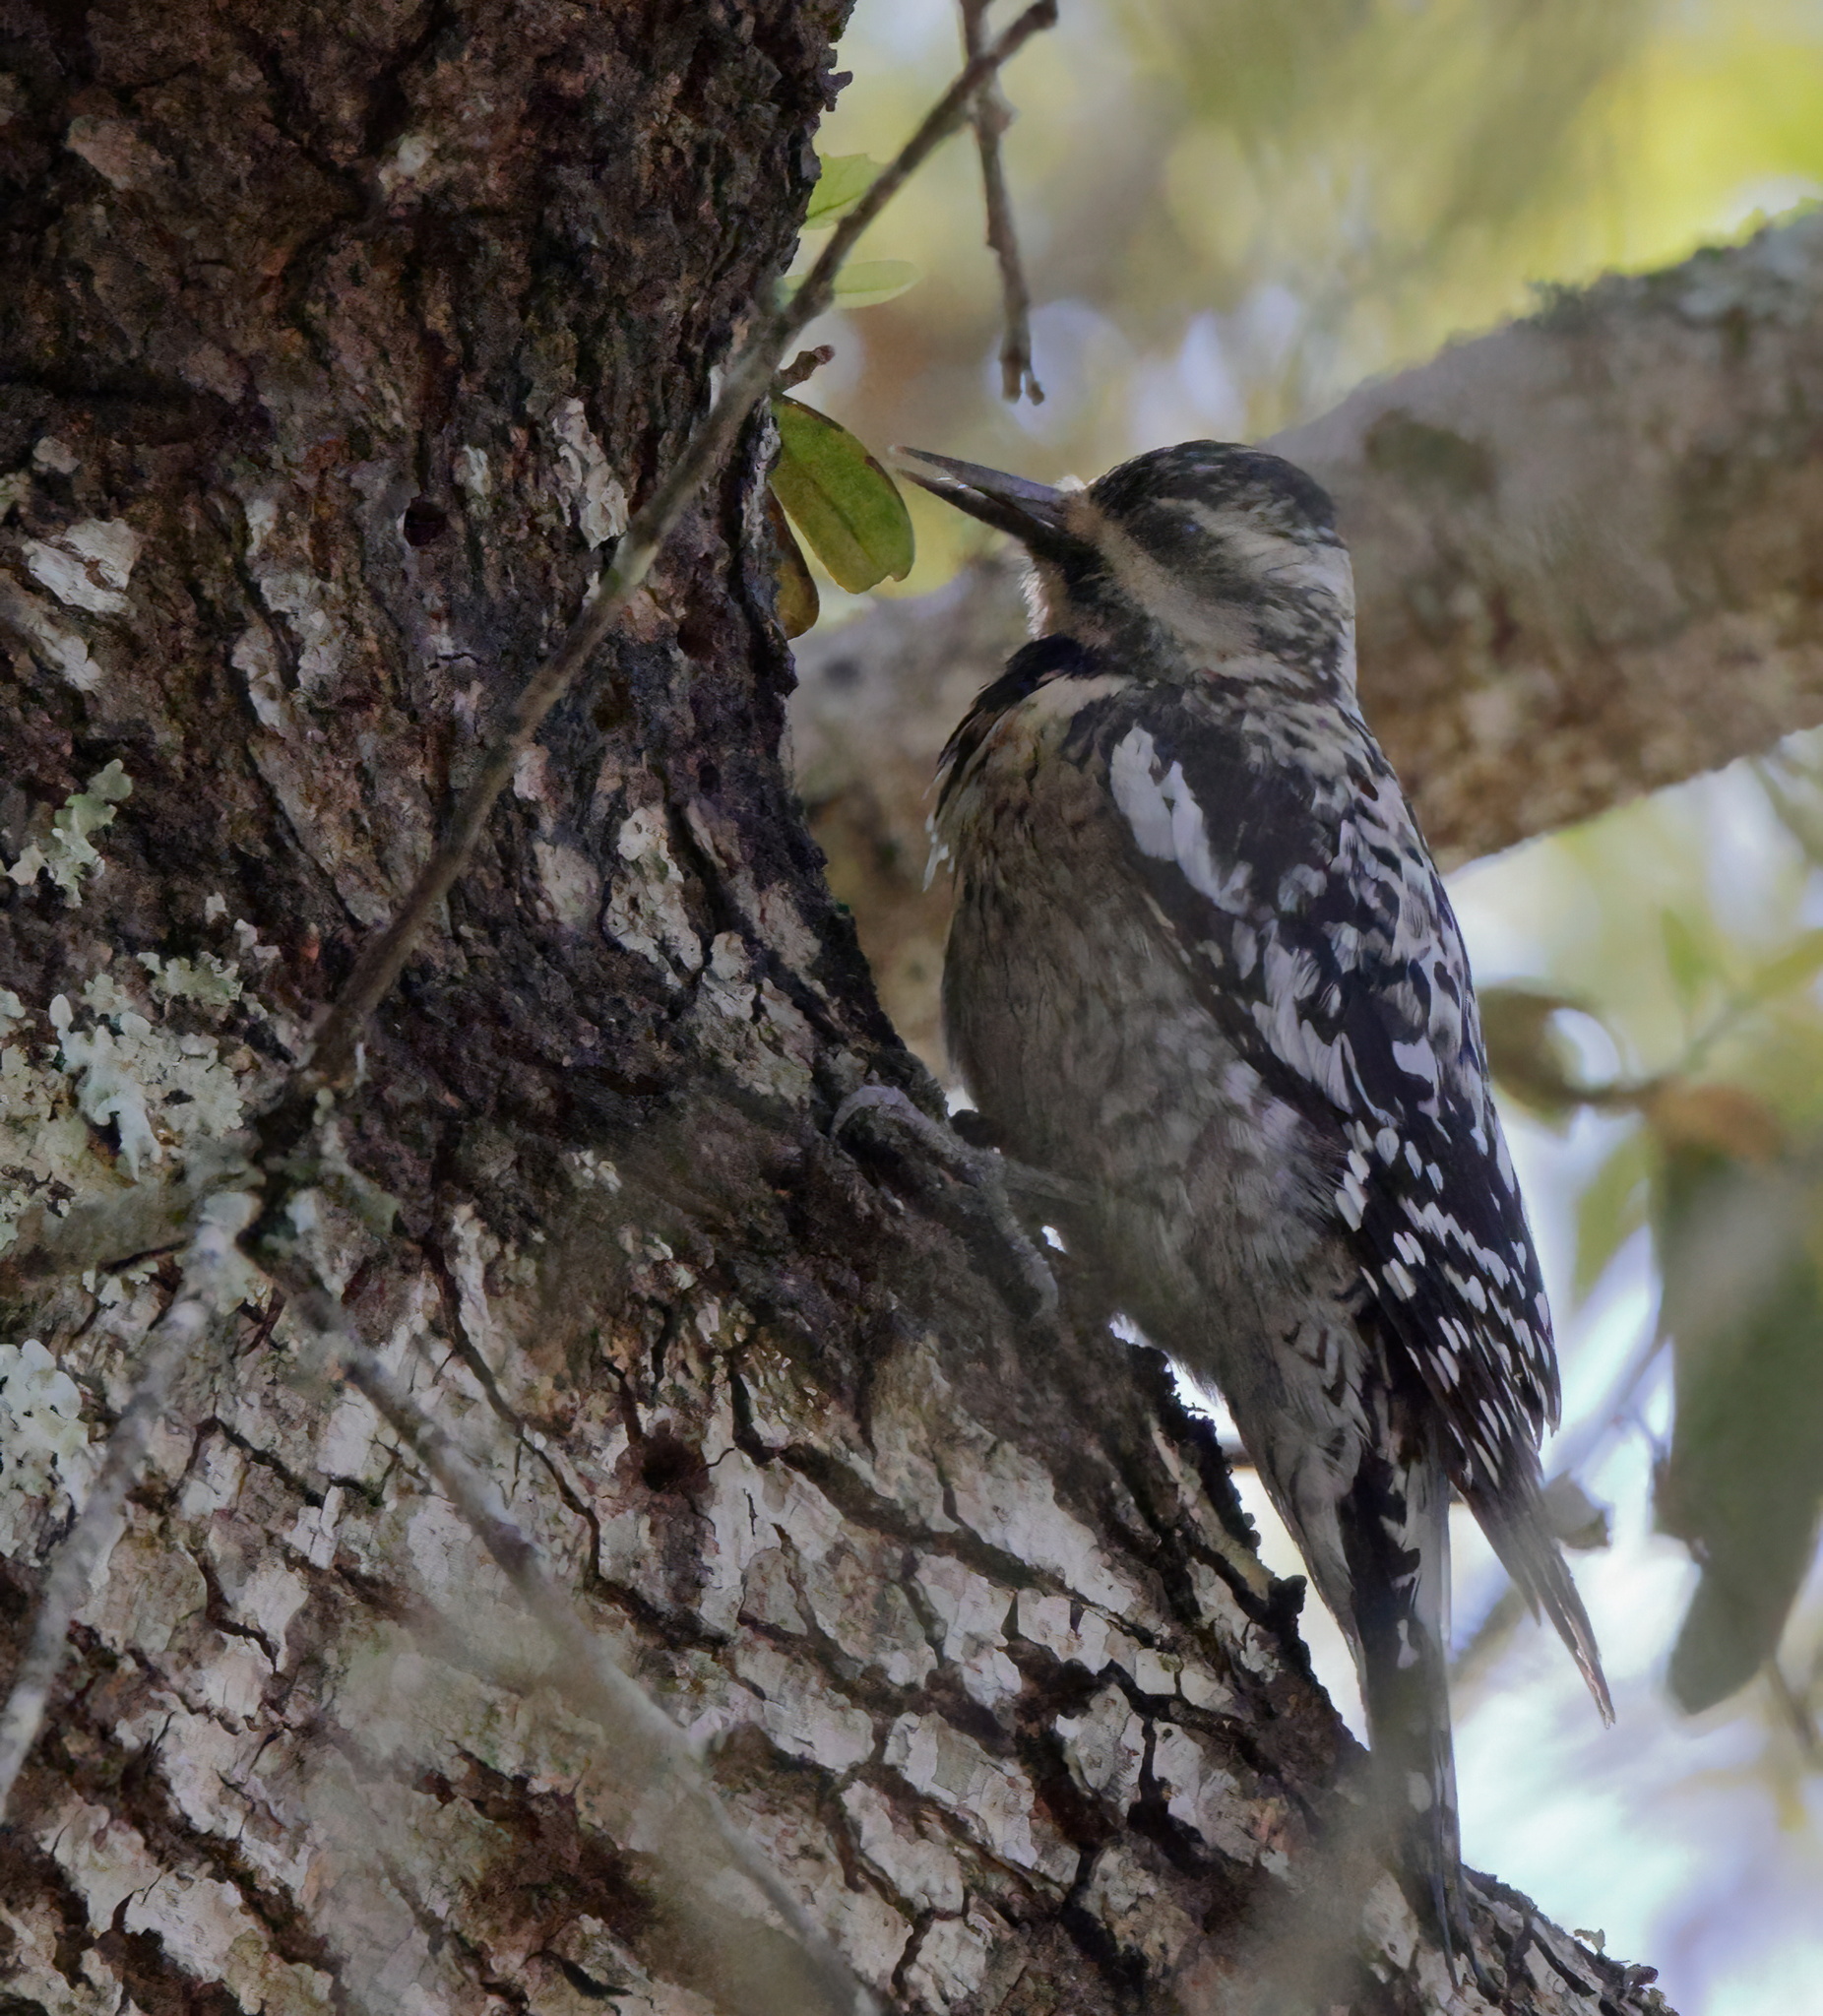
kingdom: Animalia
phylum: Chordata
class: Aves
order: Piciformes
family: Picidae
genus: Sphyrapicus
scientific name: Sphyrapicus varius
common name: Yellow-bellied sapsucker
